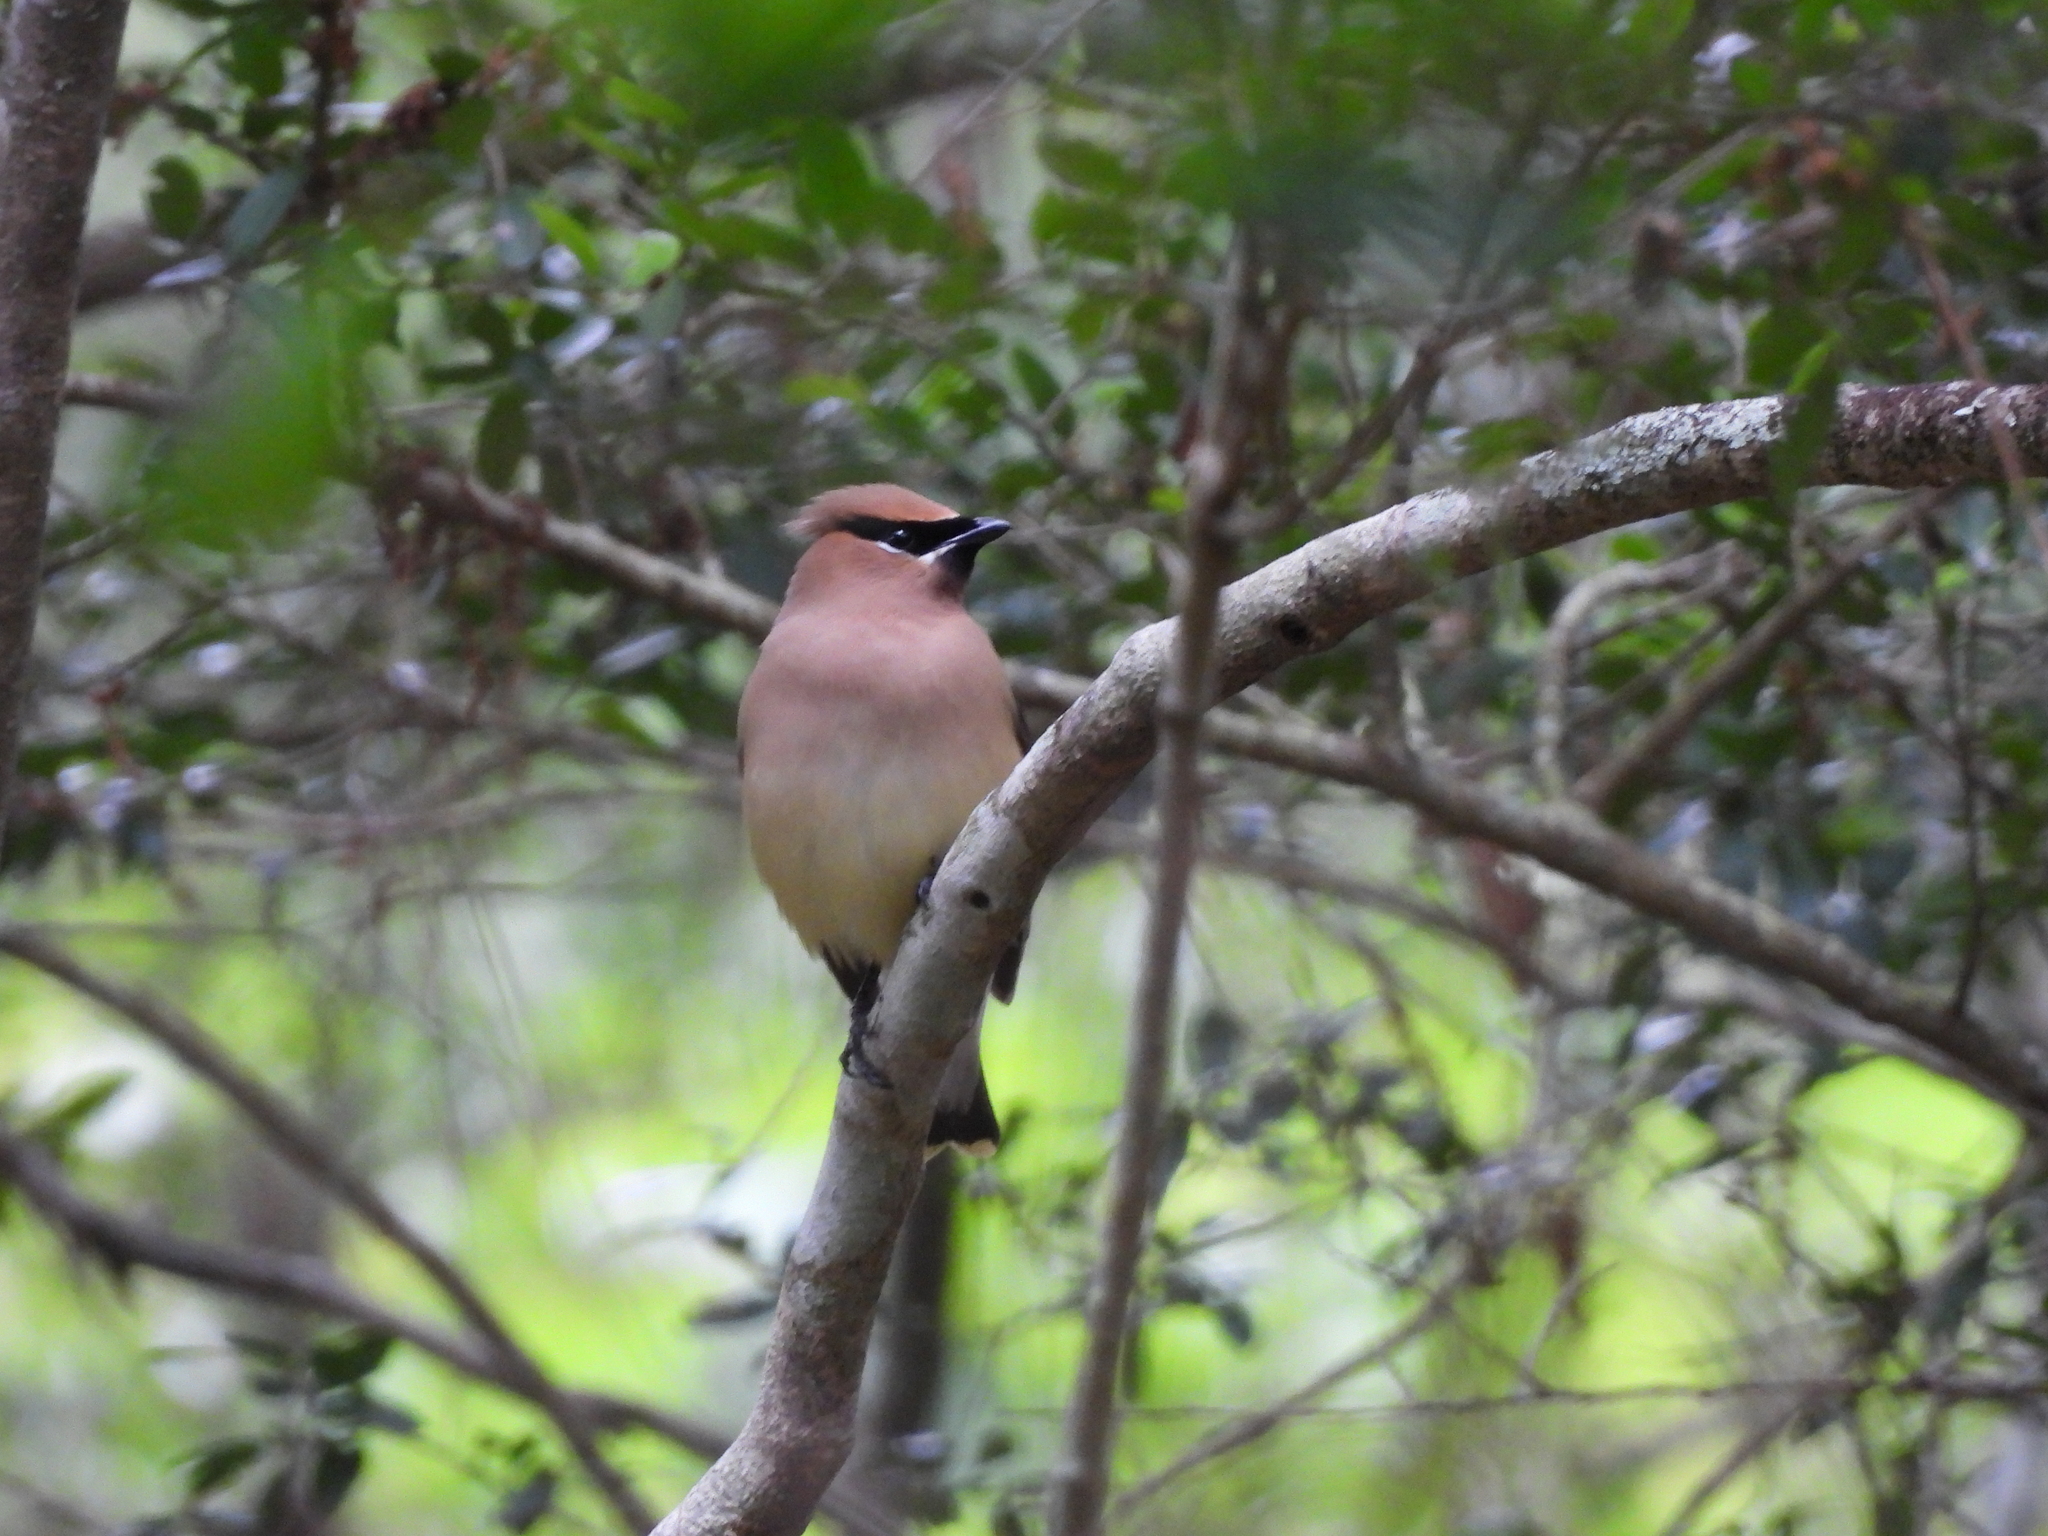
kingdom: Animalia
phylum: Chordata
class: Aves
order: Passeriformes
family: Bombycillidae
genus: Bombycilla
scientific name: Bombycilla cedrorum
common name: Cedar waxwing
